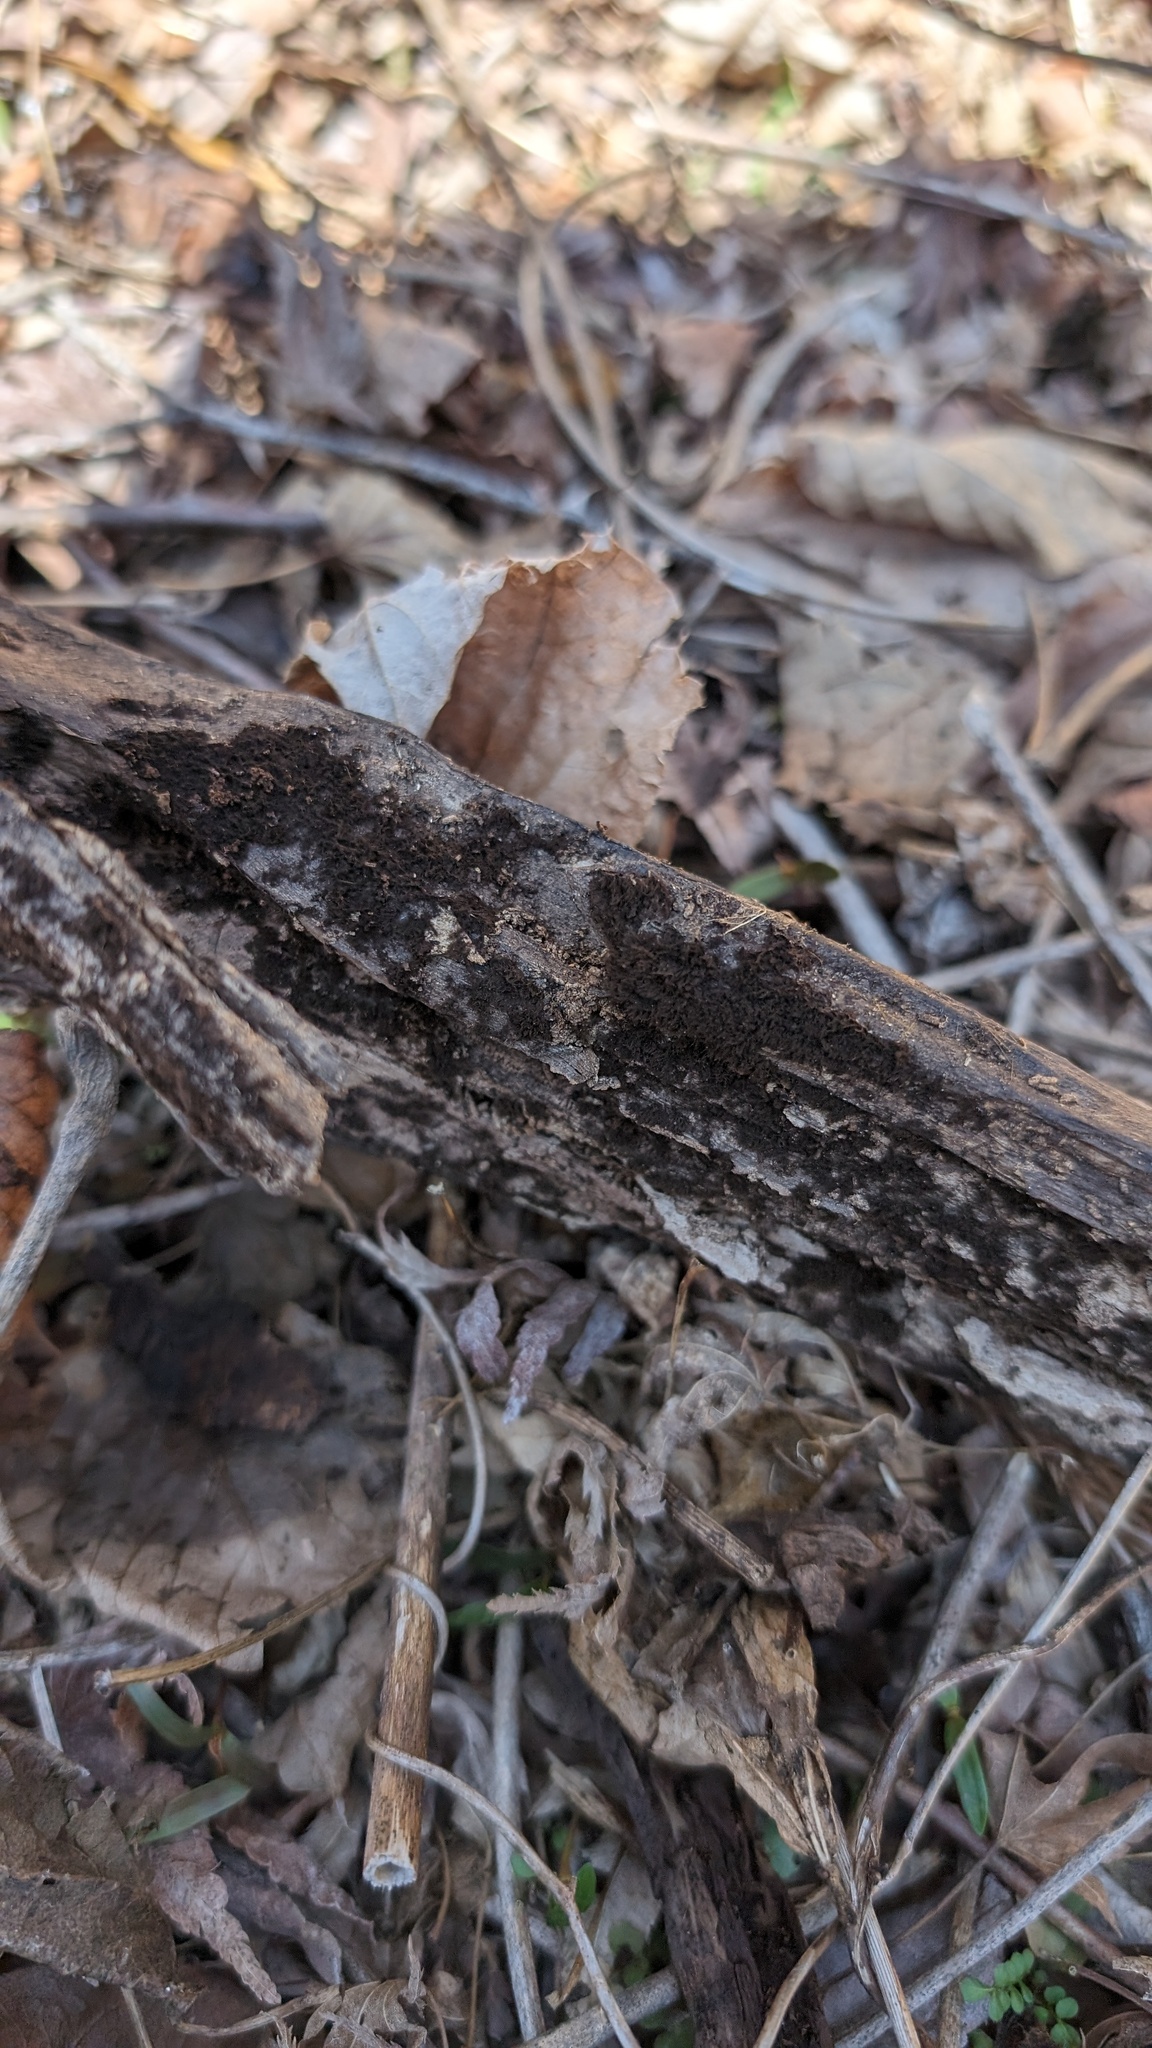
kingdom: Fungi
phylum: Ascomycota
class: Pezizomycetes
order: Pezizales
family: Pyronemataceae
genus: Trichaleurina
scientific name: Trichaleurina tenuispora
